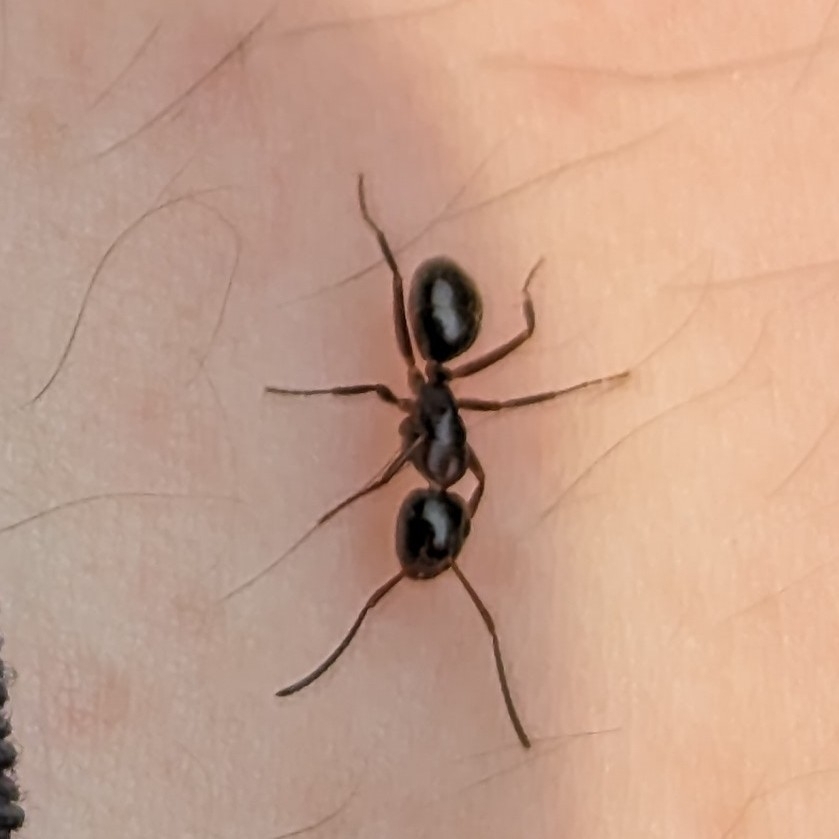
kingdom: Animalia
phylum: Arthropoda
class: Insecta
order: Hymenoptera
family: Formicidae
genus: Camponotus
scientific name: Camponotus nearcticus
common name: Smaller carpenter ant
